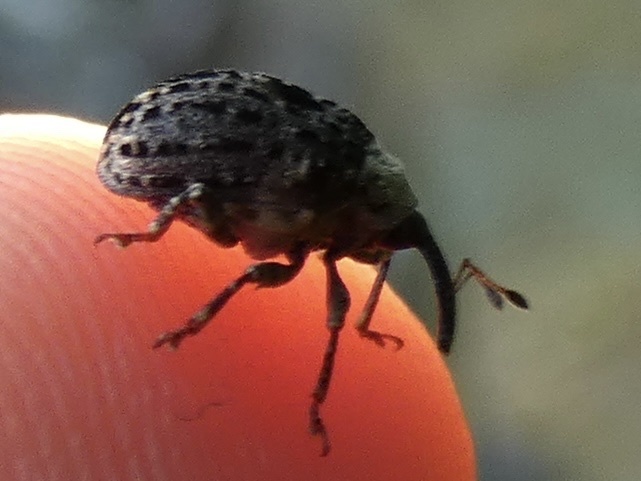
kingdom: Animalia
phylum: Arthropoda
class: Insecta
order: Coleoptera
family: Curculionidae
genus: Cionus
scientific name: Cionus scrophulariae
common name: Common figwort weevil
